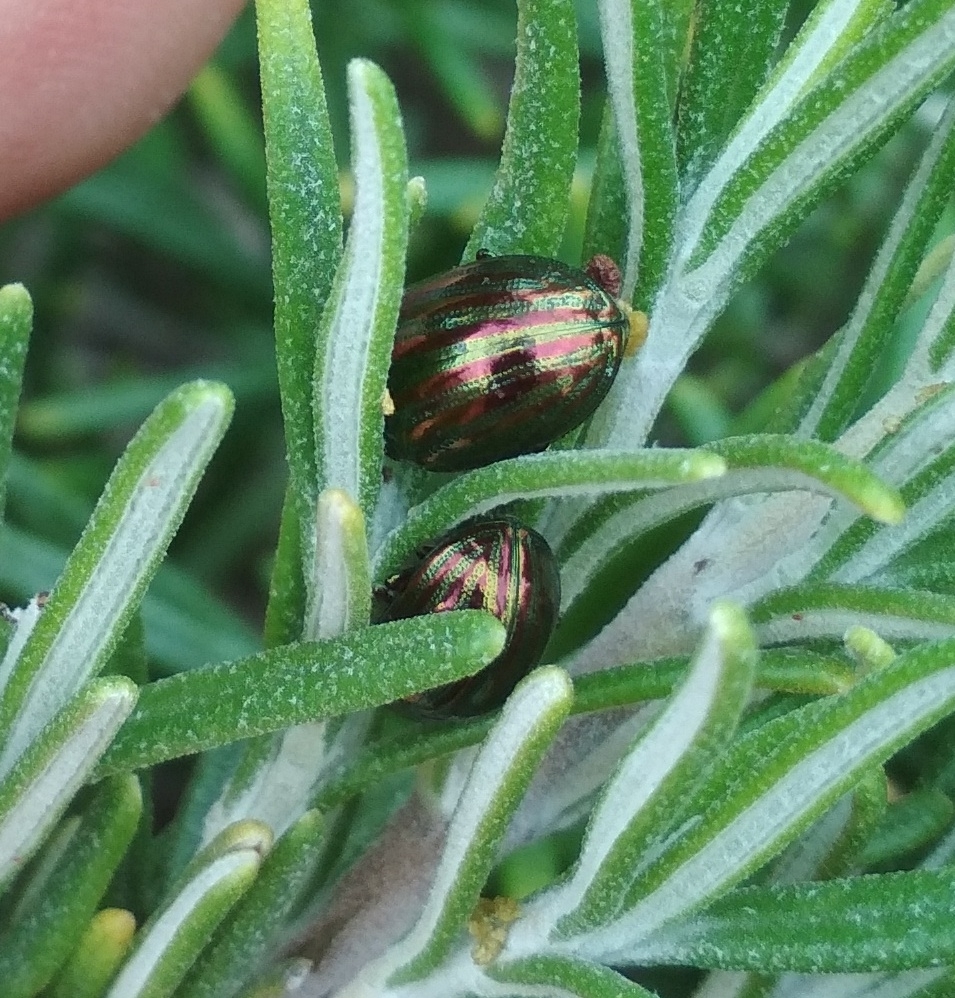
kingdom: Animalia
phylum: Arthropoda
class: Insecta
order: Coleoptera
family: Chrysomelidae
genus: Chrysolina
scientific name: Chrysolina americana
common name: Rosemary beetle
